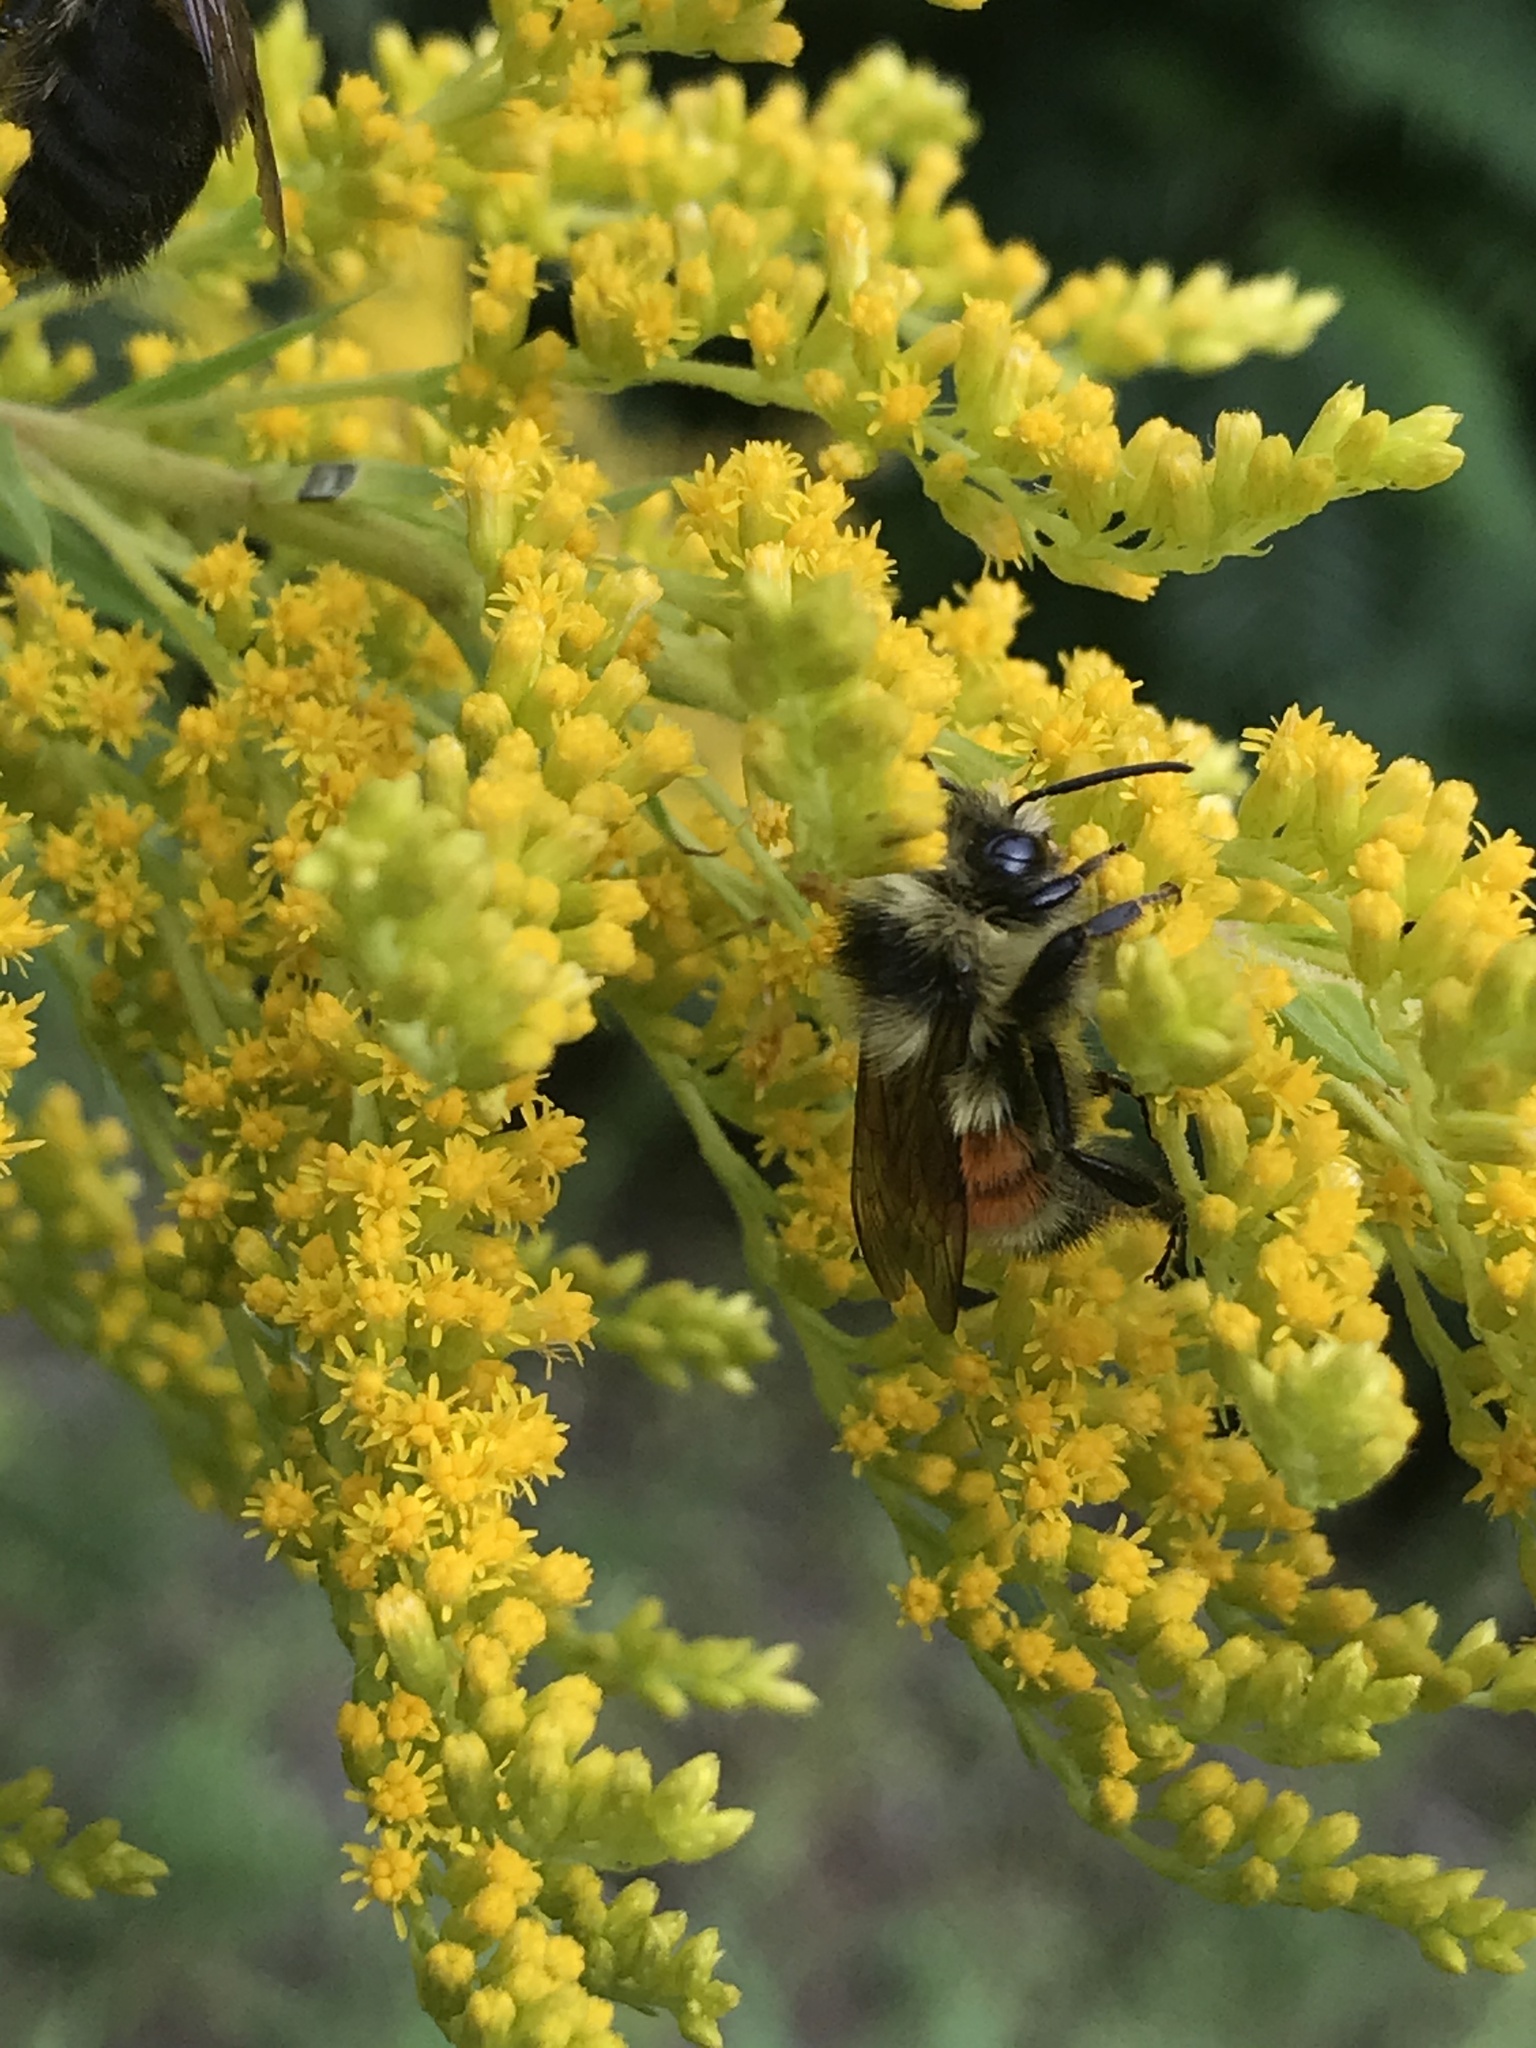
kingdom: Animalia
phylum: Arthropoda
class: Insecta
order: Hymenoptera
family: Apidae
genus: Bombus
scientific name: Bombus ternarius
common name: Tri-colored bumble bee
